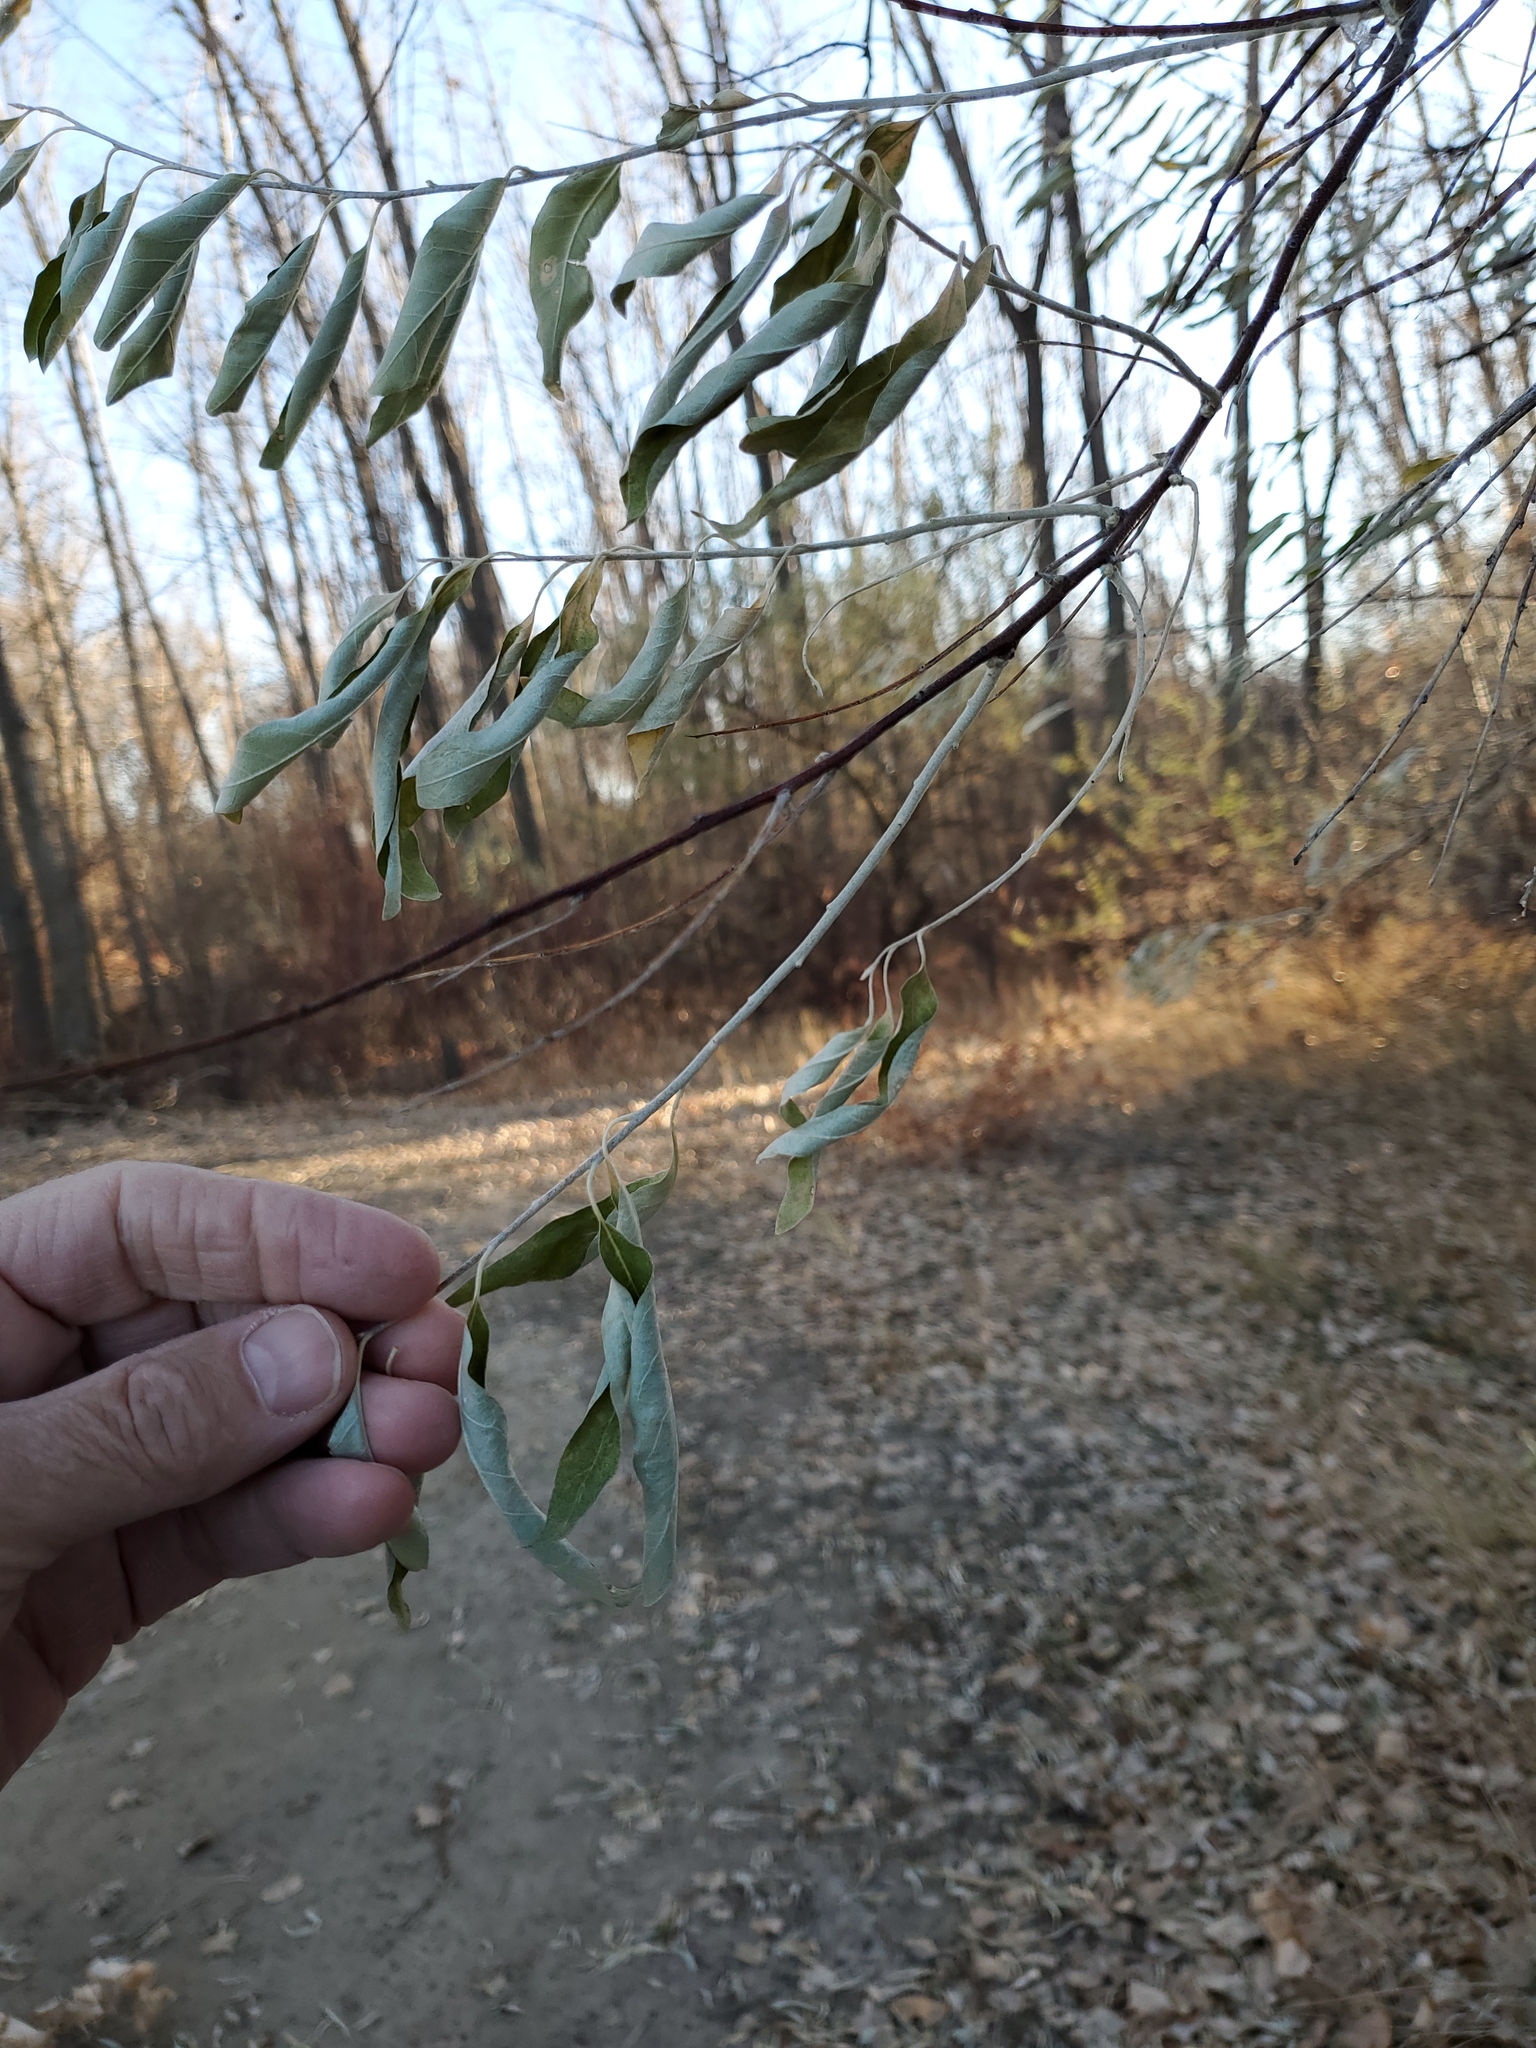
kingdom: Plantae
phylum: Tracheophyta
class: Magnoliopsida
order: Rosales
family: Elaeagnaceae
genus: Elaeagnus
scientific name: Elaeagnus angustifolia
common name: Russian olive
